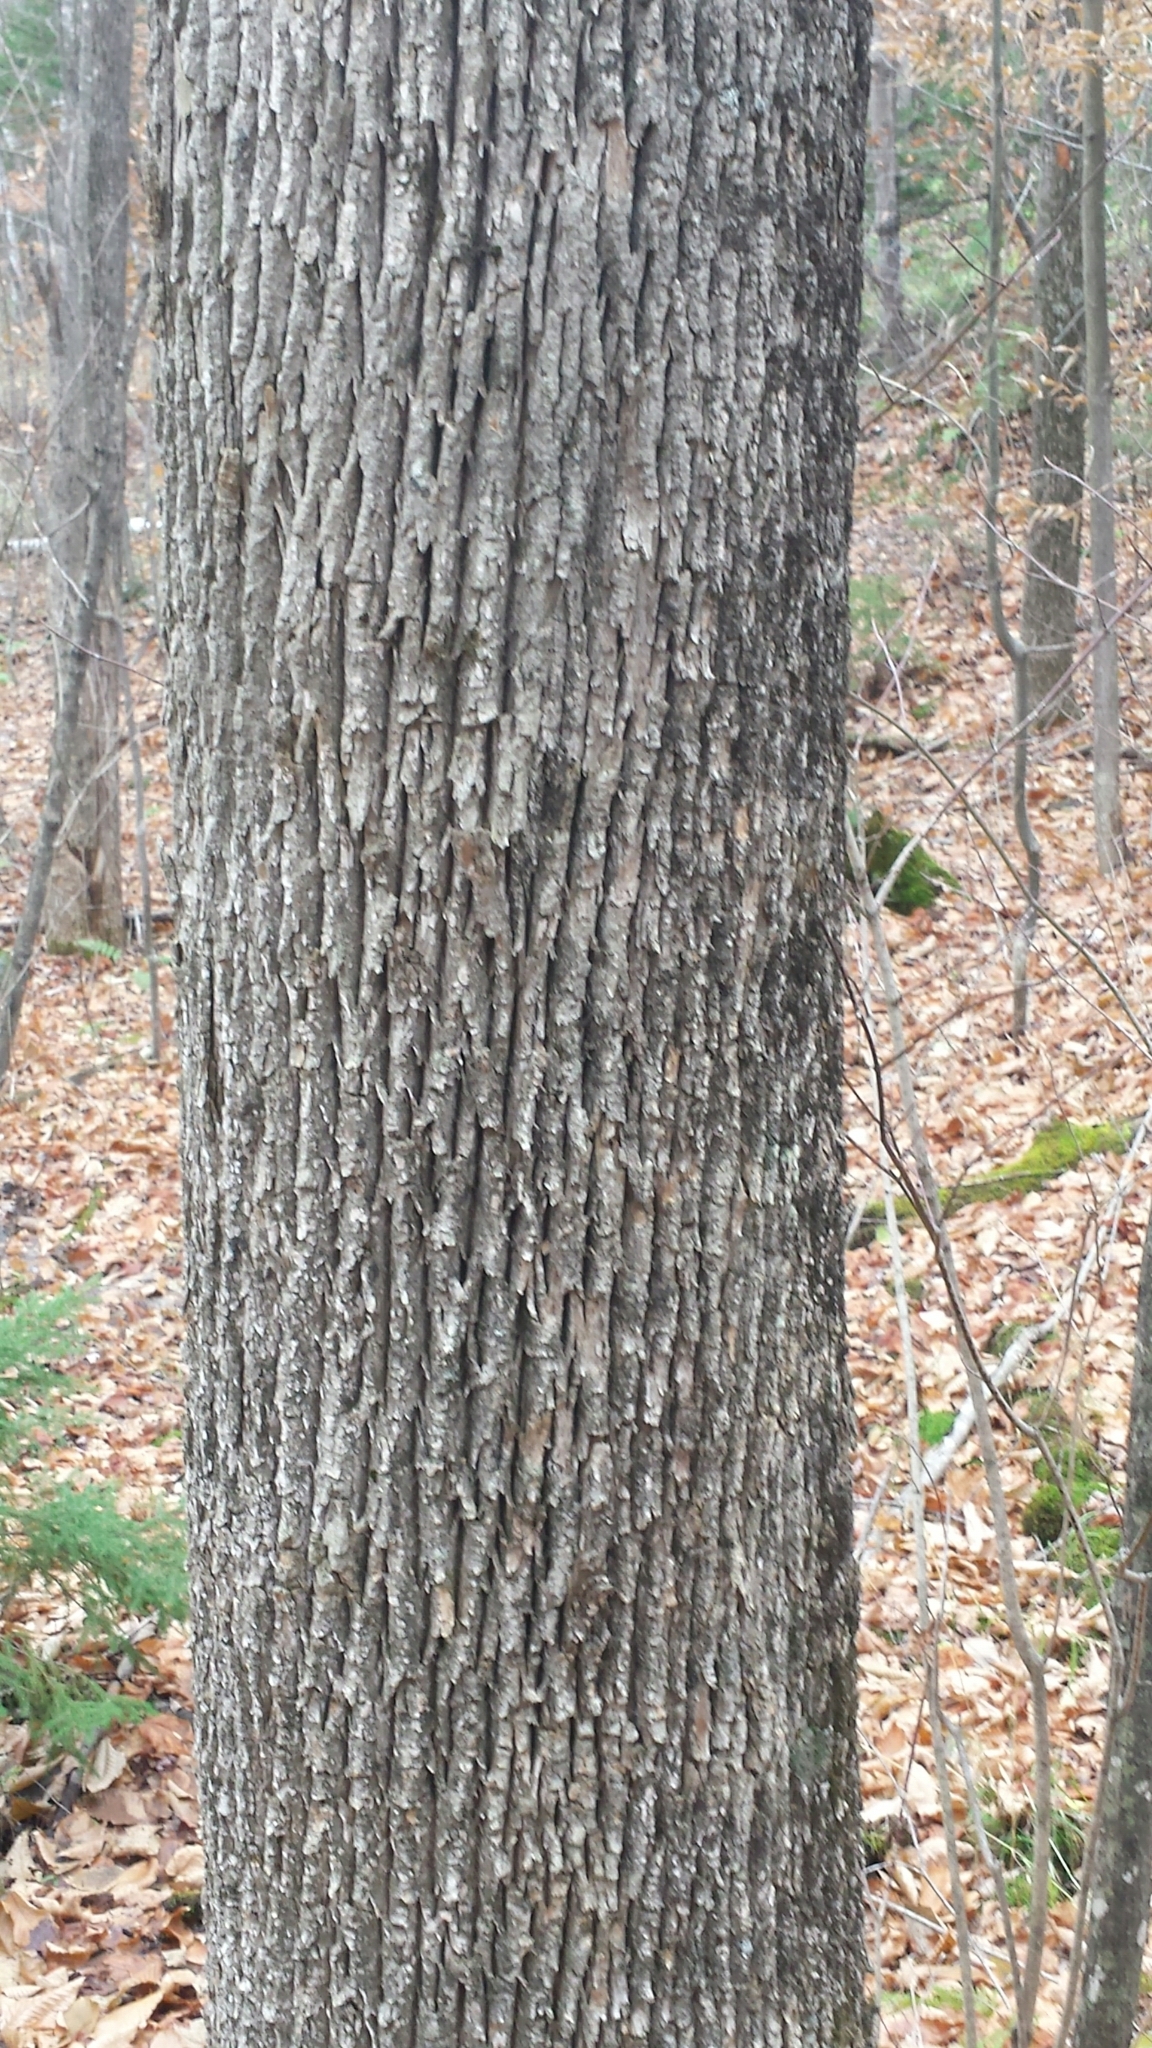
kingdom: Plantae
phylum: Tracheophyta
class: Magnoliopsida
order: Lamiales
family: Oleaceae
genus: Fraxinus
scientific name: Fraxinus americana
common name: White ash
